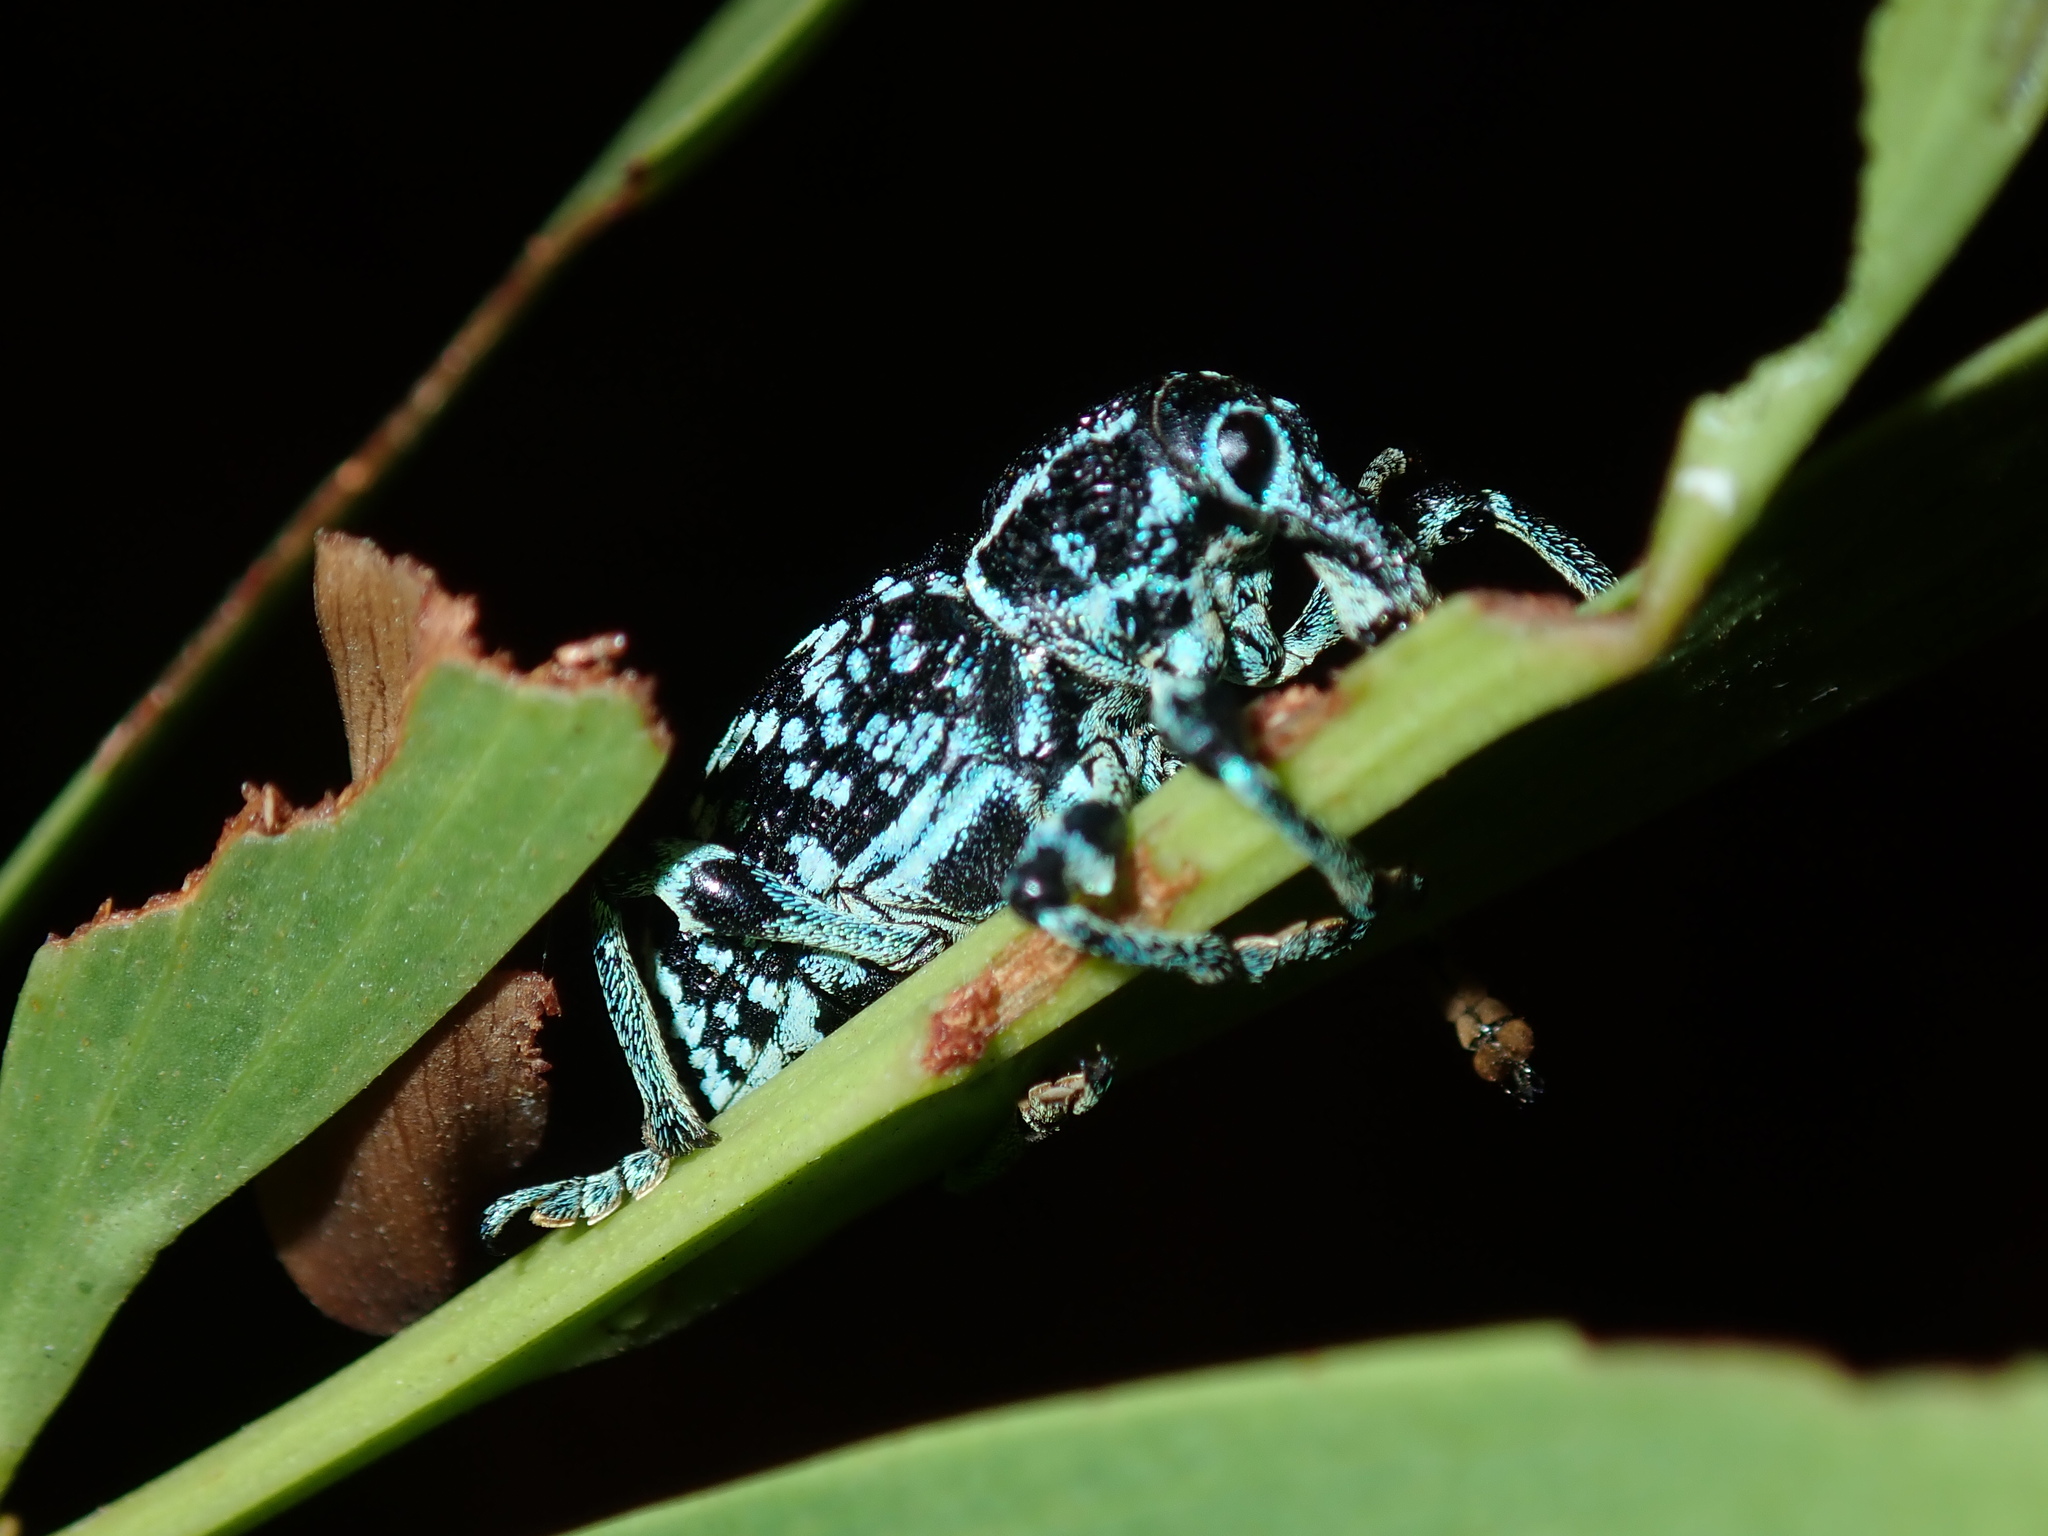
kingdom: Animalia
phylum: Arthropoda
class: Insecta
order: Coleoptera
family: Curculionidae
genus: Chrysolopus
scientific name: Chrysolopus spectabilis
